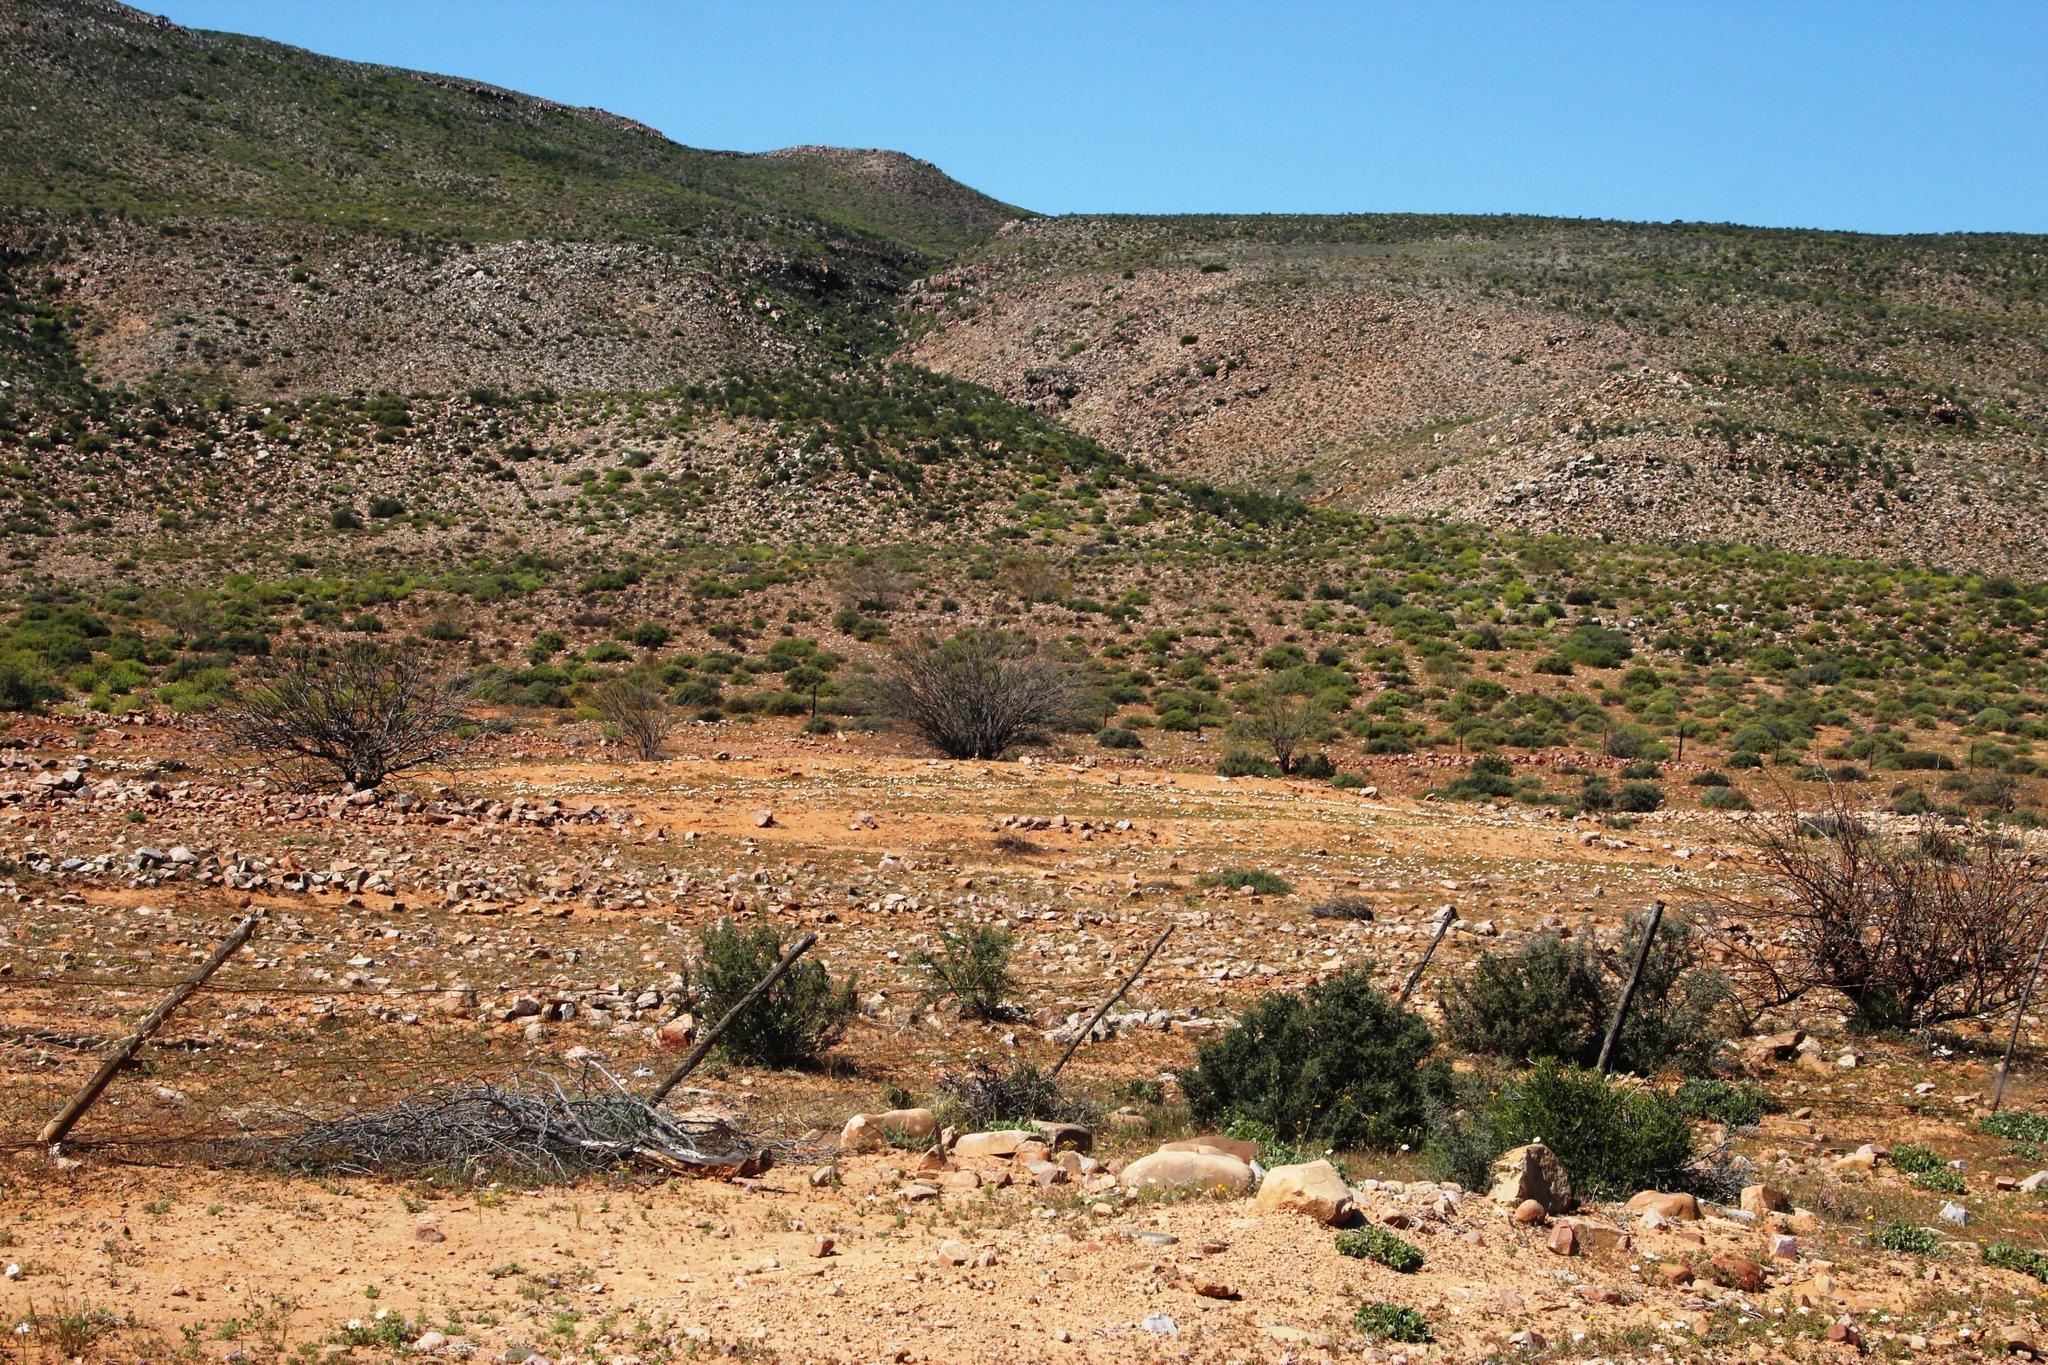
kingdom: Plantae
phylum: Tracheophyta
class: Magnoliopsida
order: Fabales
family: Fabaceae
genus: Prosopis
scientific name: Prosopis glandulosa
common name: Honey mesquite
